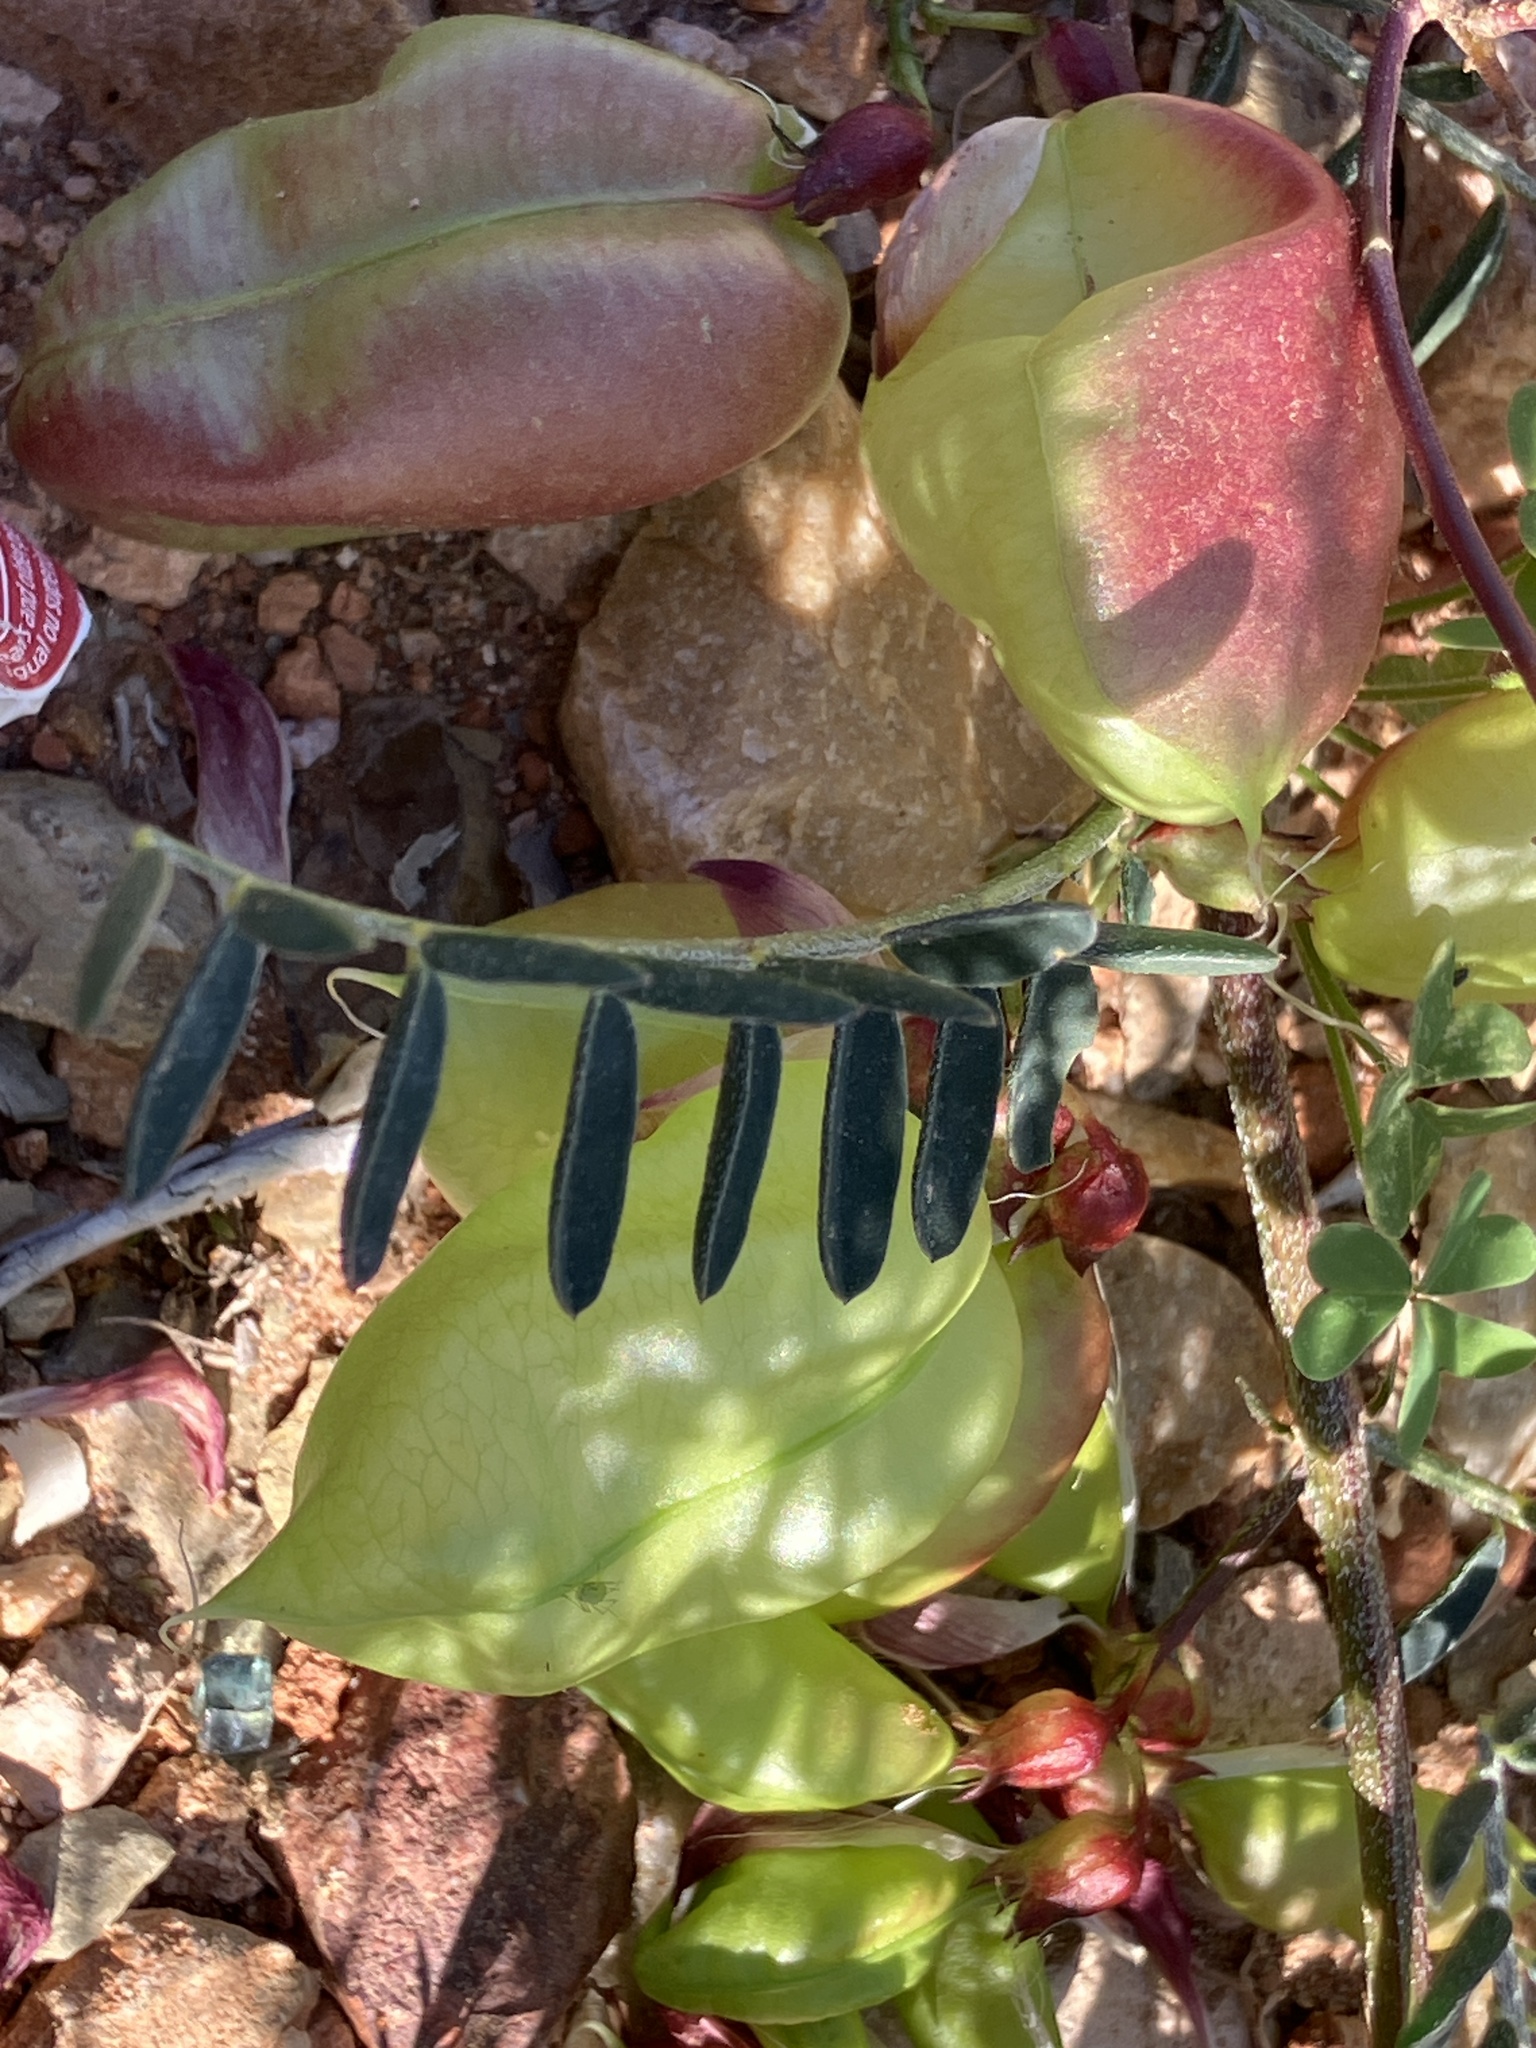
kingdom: Plantae
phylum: Tracheophyta
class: Magnoliopsida
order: Fabales
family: Fabaceae
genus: Lessertia
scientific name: Lessertia frutescens
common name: Balloon-pea
